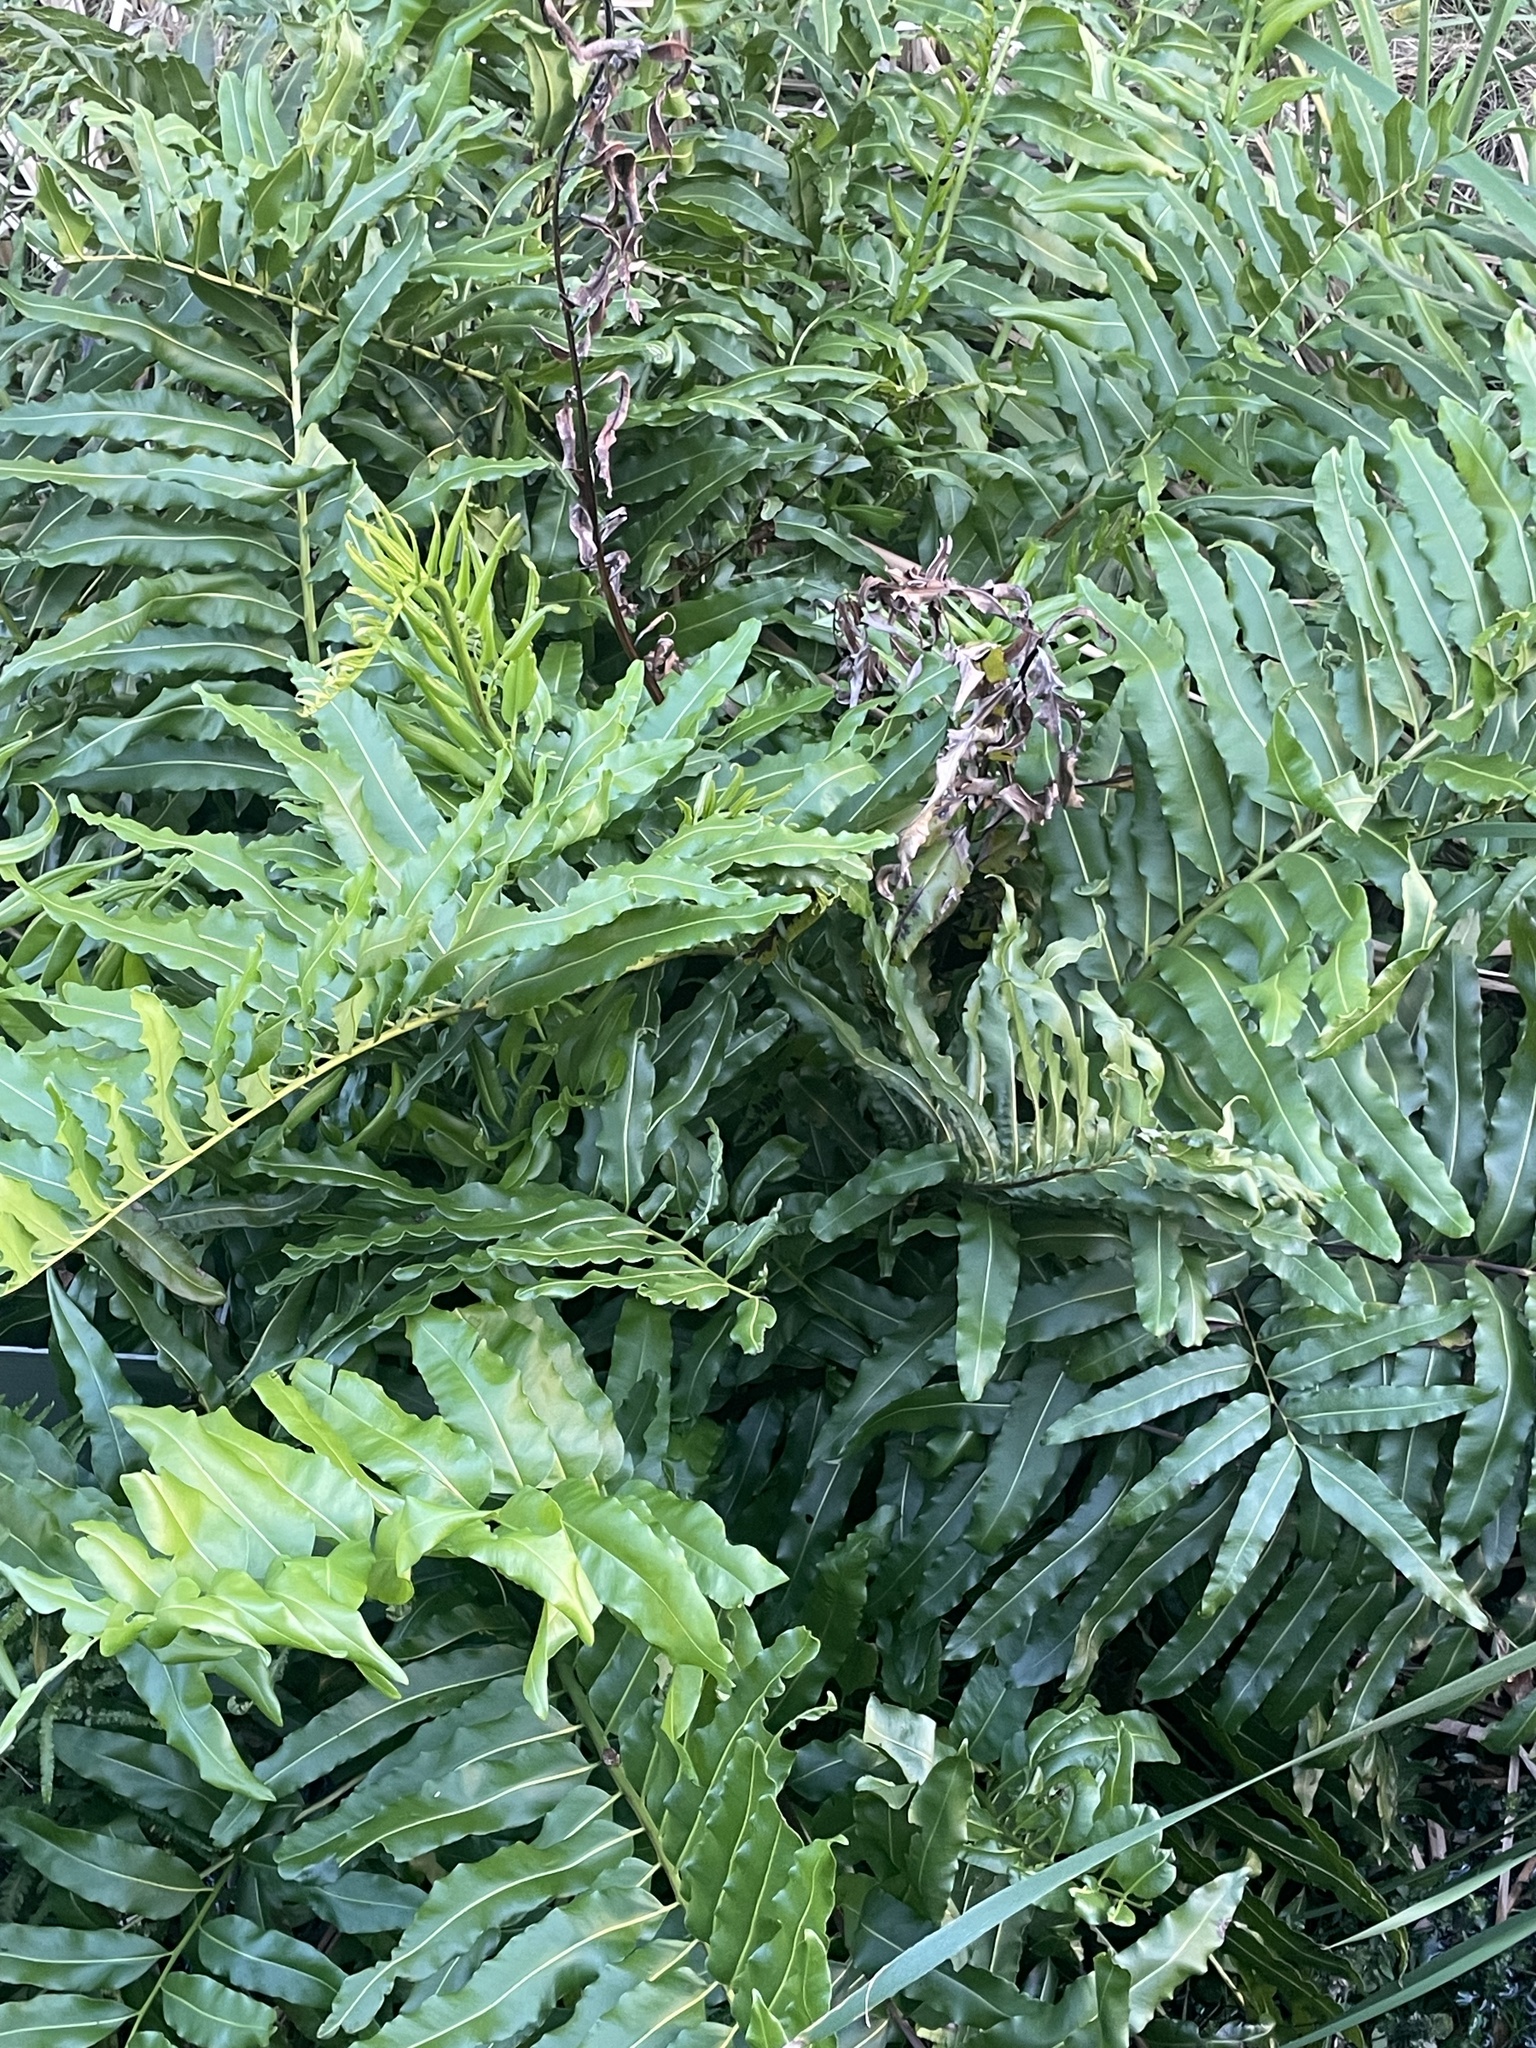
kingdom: Plantae
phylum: Tracheophyta
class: Polypodiopsida
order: Polypodiales
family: Pteridaceae
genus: Acrostichum
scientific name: Acrostichum danaeifolium
